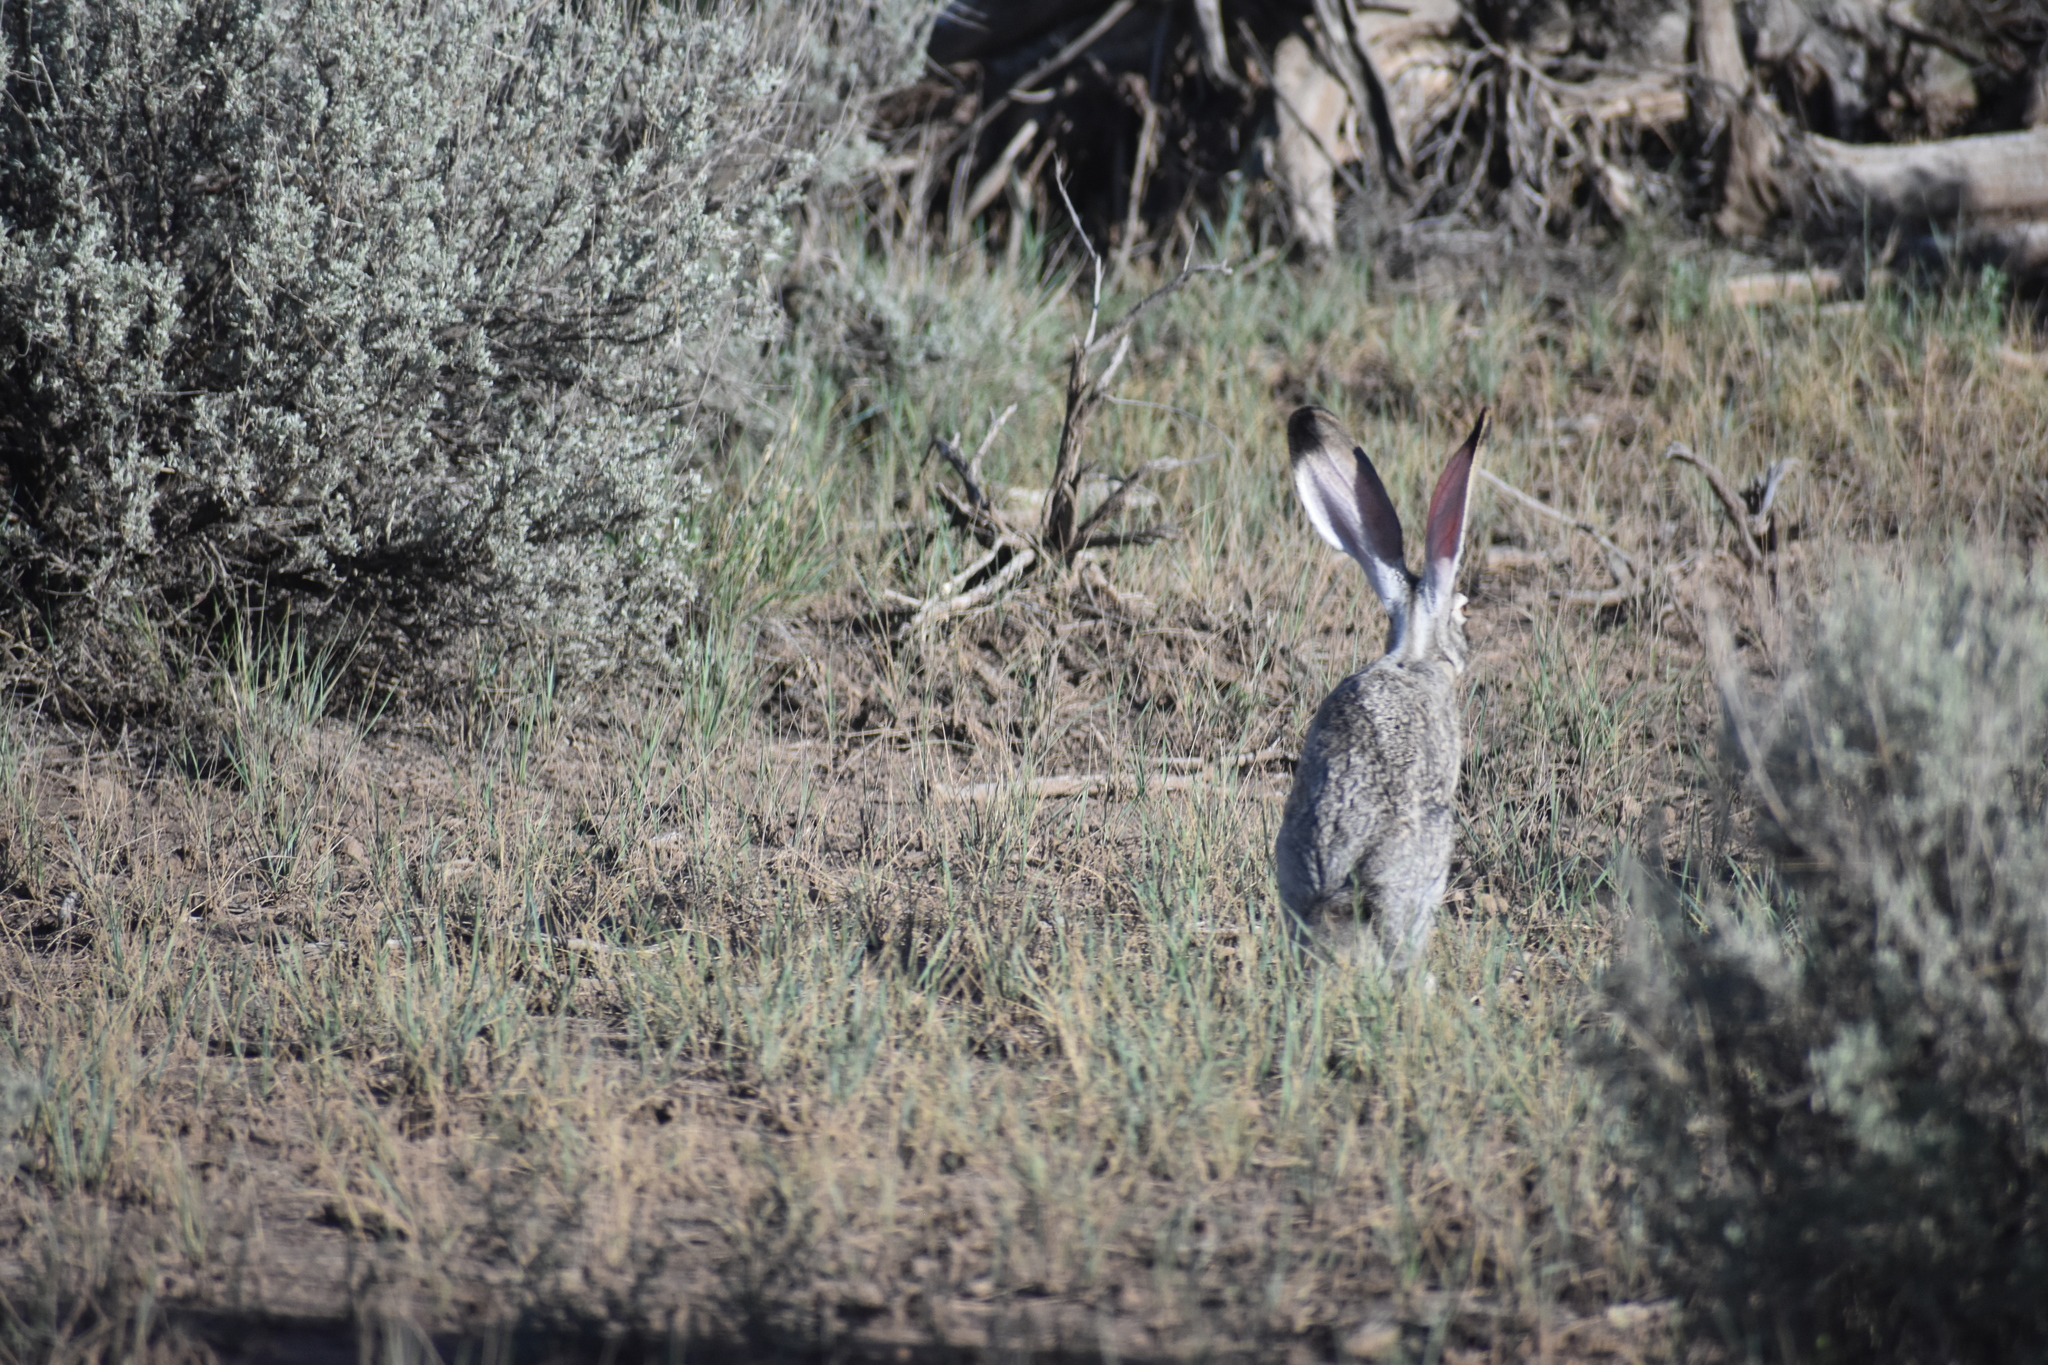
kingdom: Animalia
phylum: Chordata
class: Mammalia
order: Lagomorpha
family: Leporidae
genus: Lepus
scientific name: Lepus californicus
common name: Black-tailed jackrabbit
